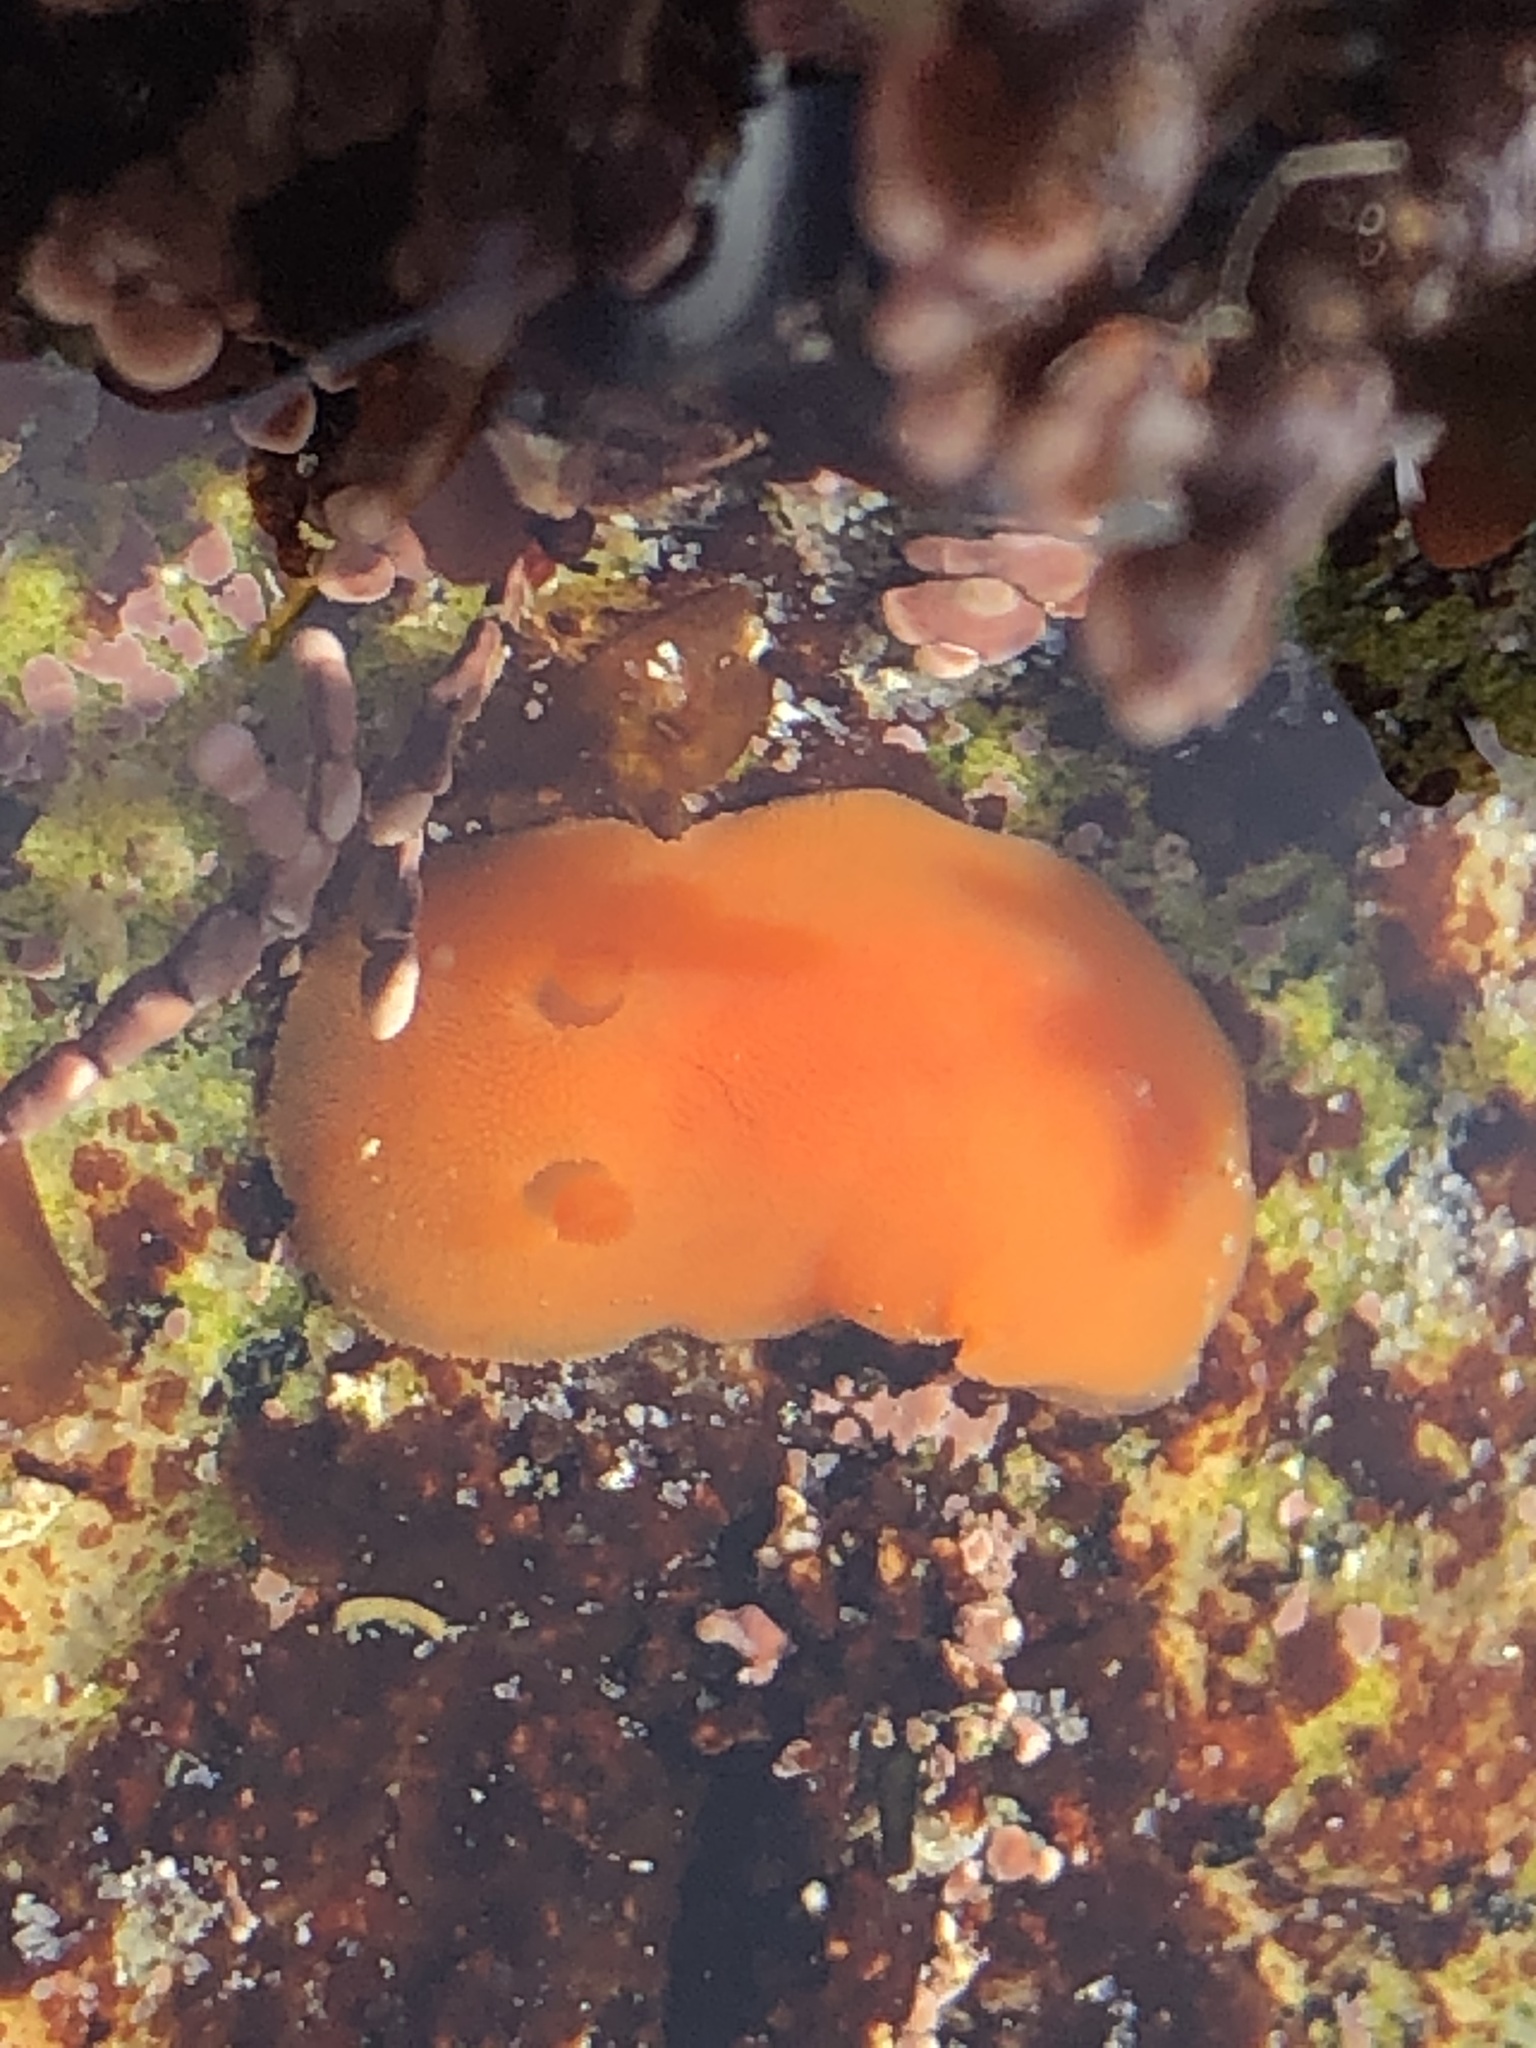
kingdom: Animalia
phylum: Mollusca
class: Gastropoda
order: Nudibranchia
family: Discodorididae
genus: Rostanga
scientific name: Rostanga pulchra
